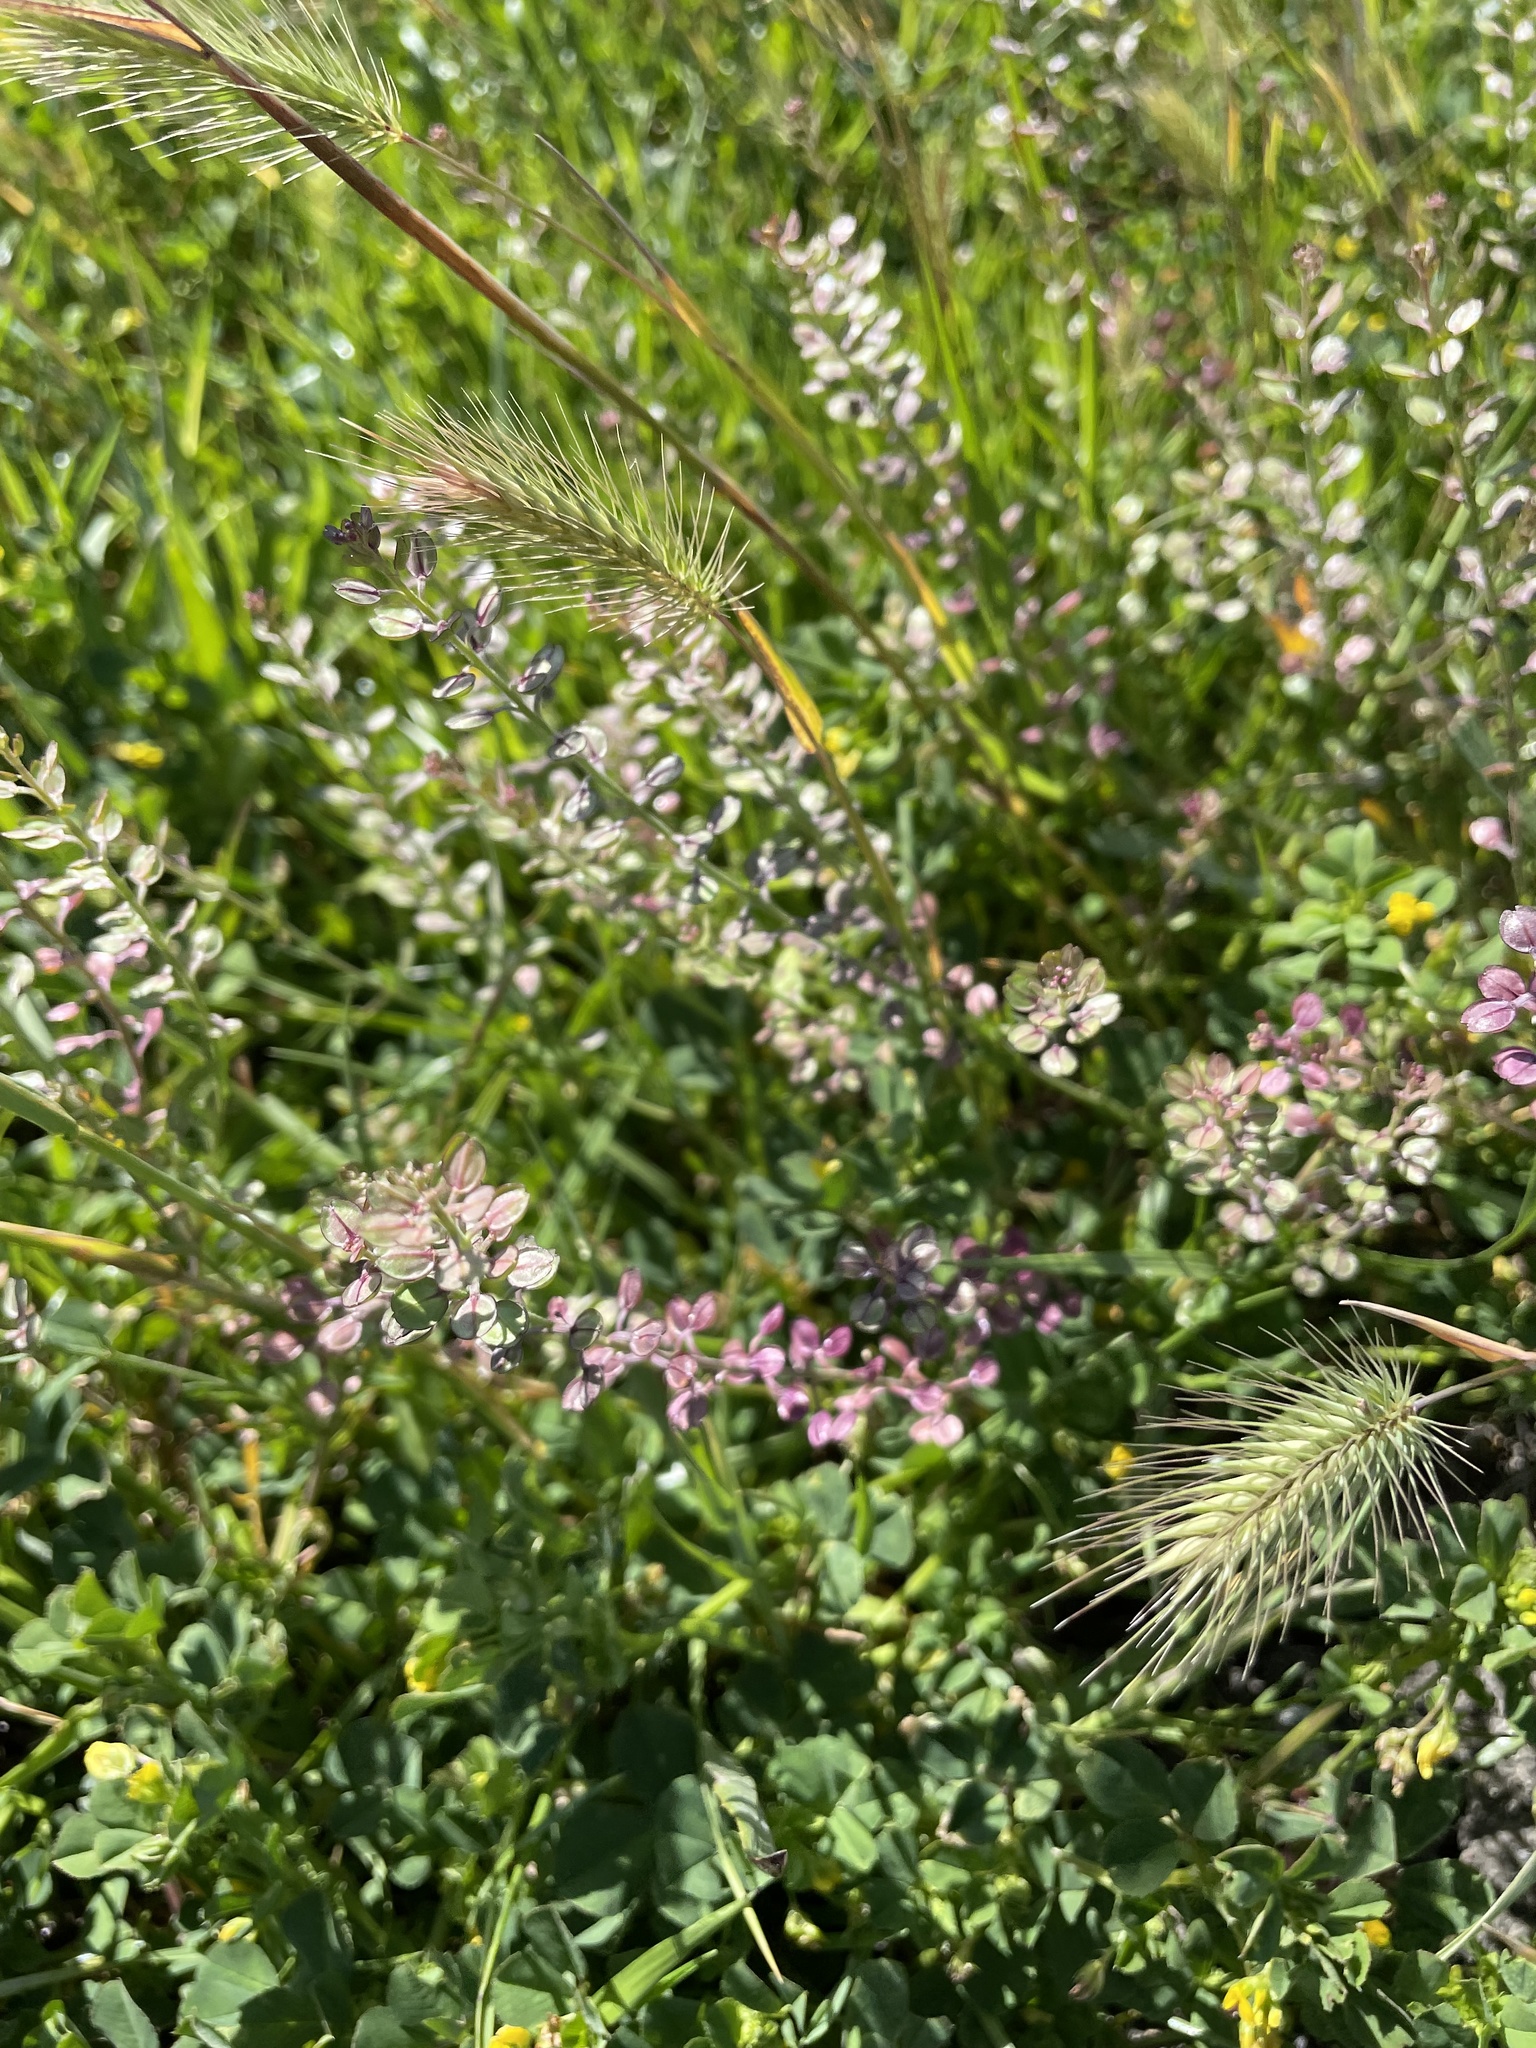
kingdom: Plantae
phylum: Tracheophyta
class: Magnoliopsida
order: Brassicales
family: Brassicaceae
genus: Lepidium
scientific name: Lepidium nitidum
